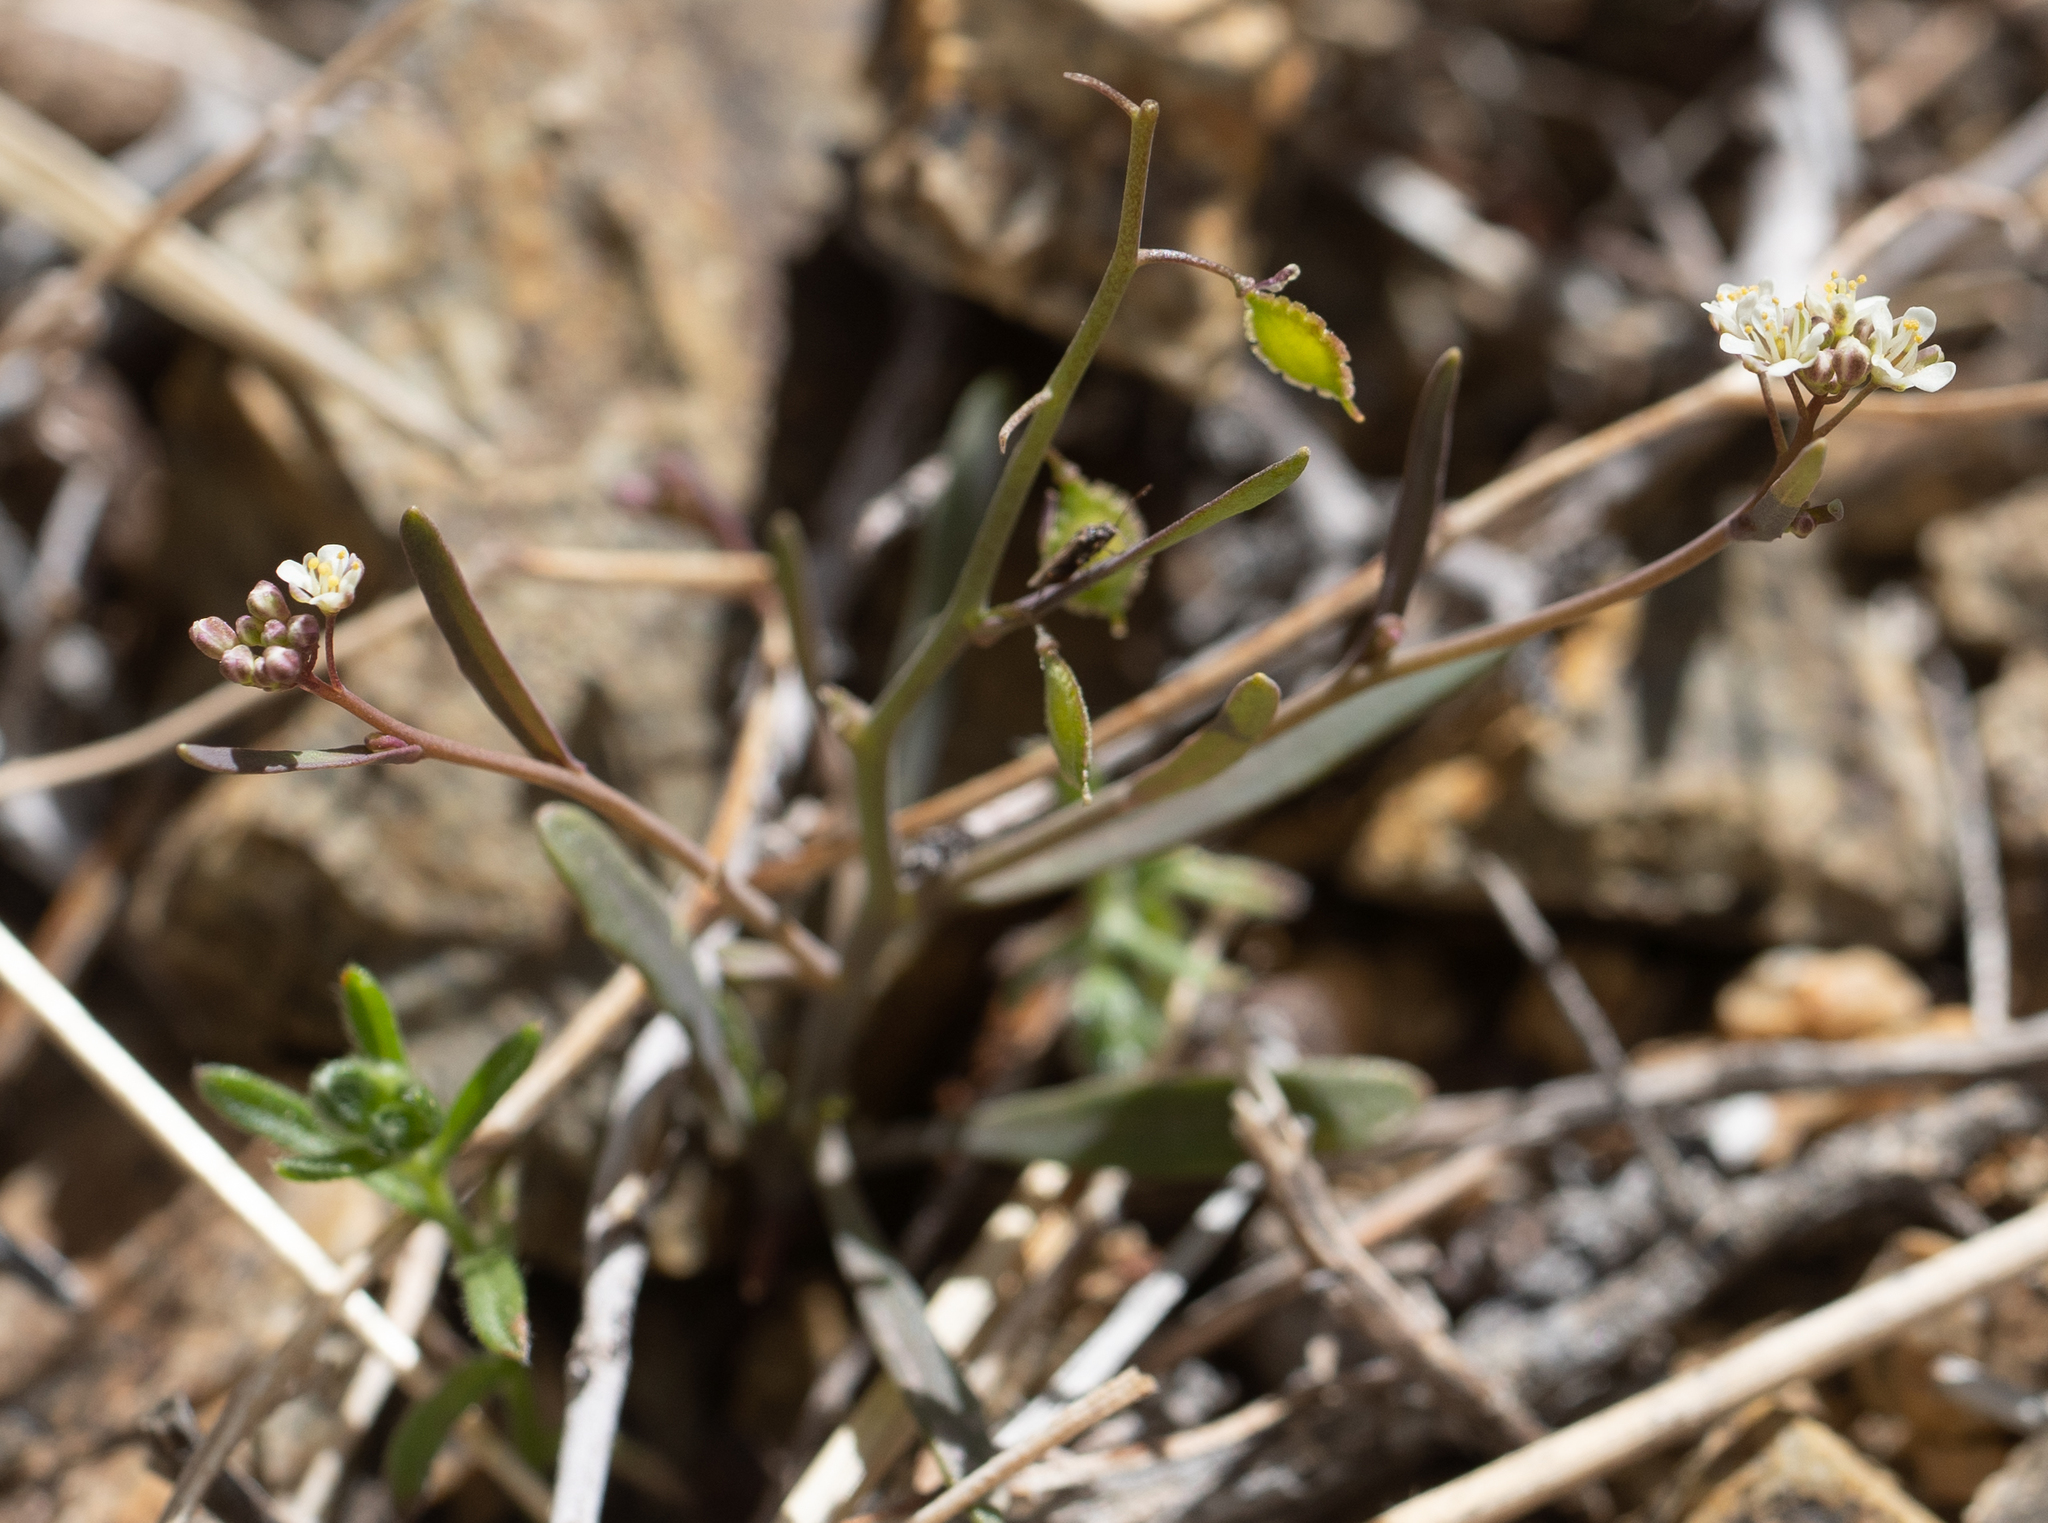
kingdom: Plantae
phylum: Tracheophyta
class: Magnoliopsida
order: Brassicales
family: Brassicaceae
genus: Thysanocarpus
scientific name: Thysanocarpus desertorum
